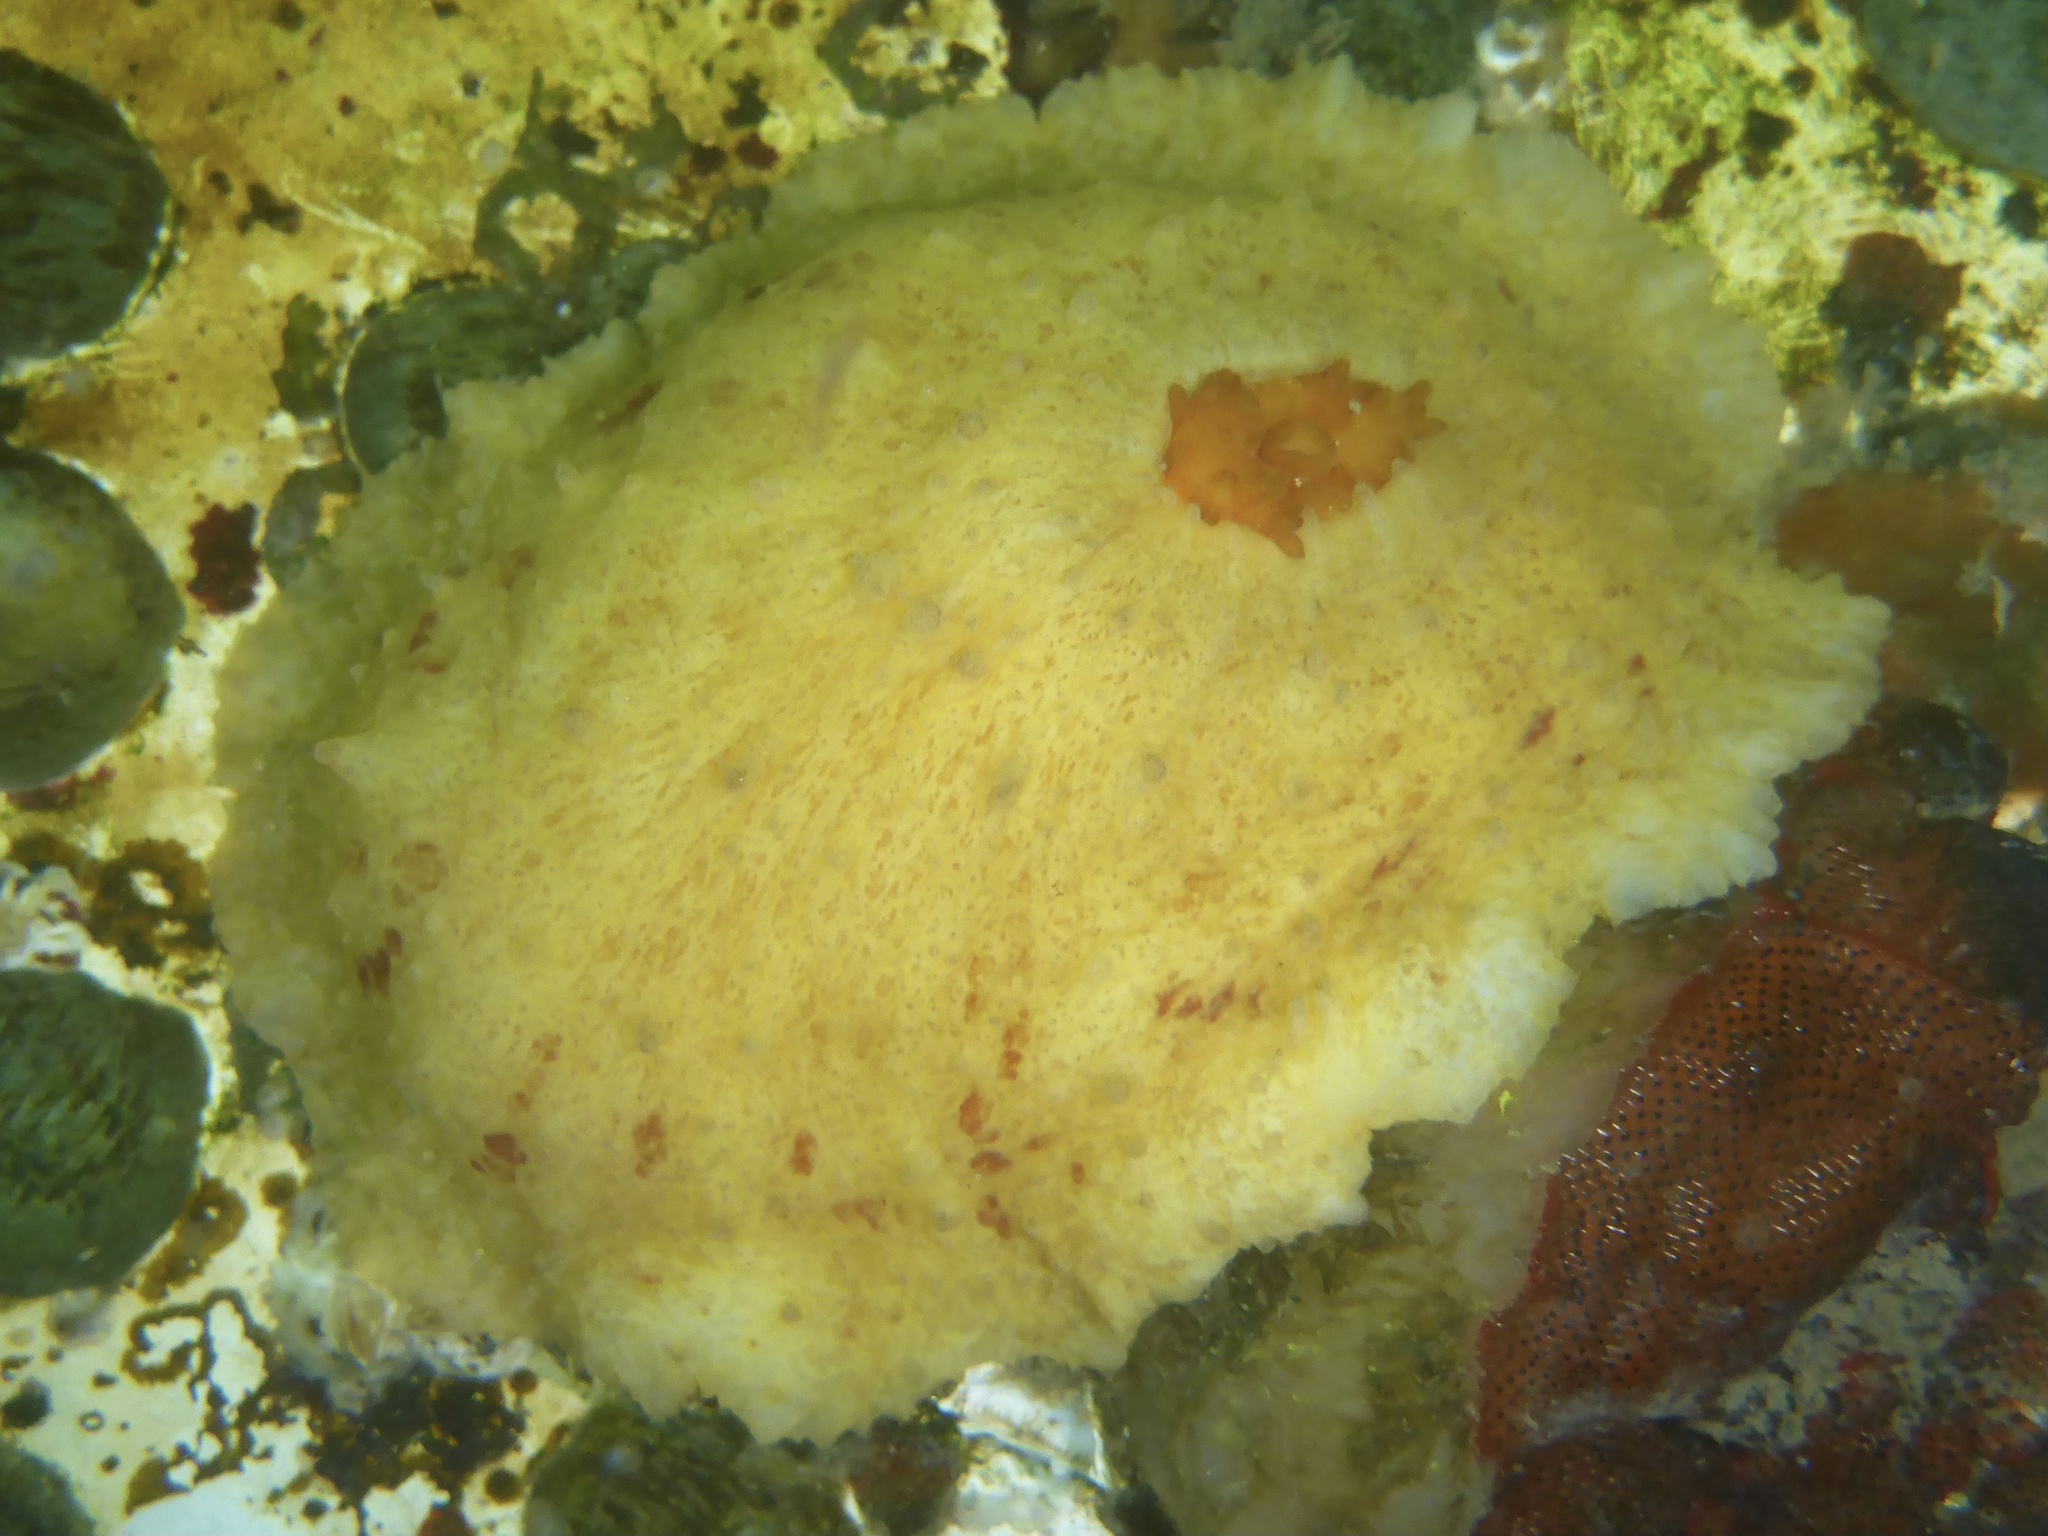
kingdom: Animalia
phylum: Mollusca
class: Gastropoda
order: Lepetellida
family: Fissurellidae
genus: Fissurellidea
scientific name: Fissurellidea bimaculata
